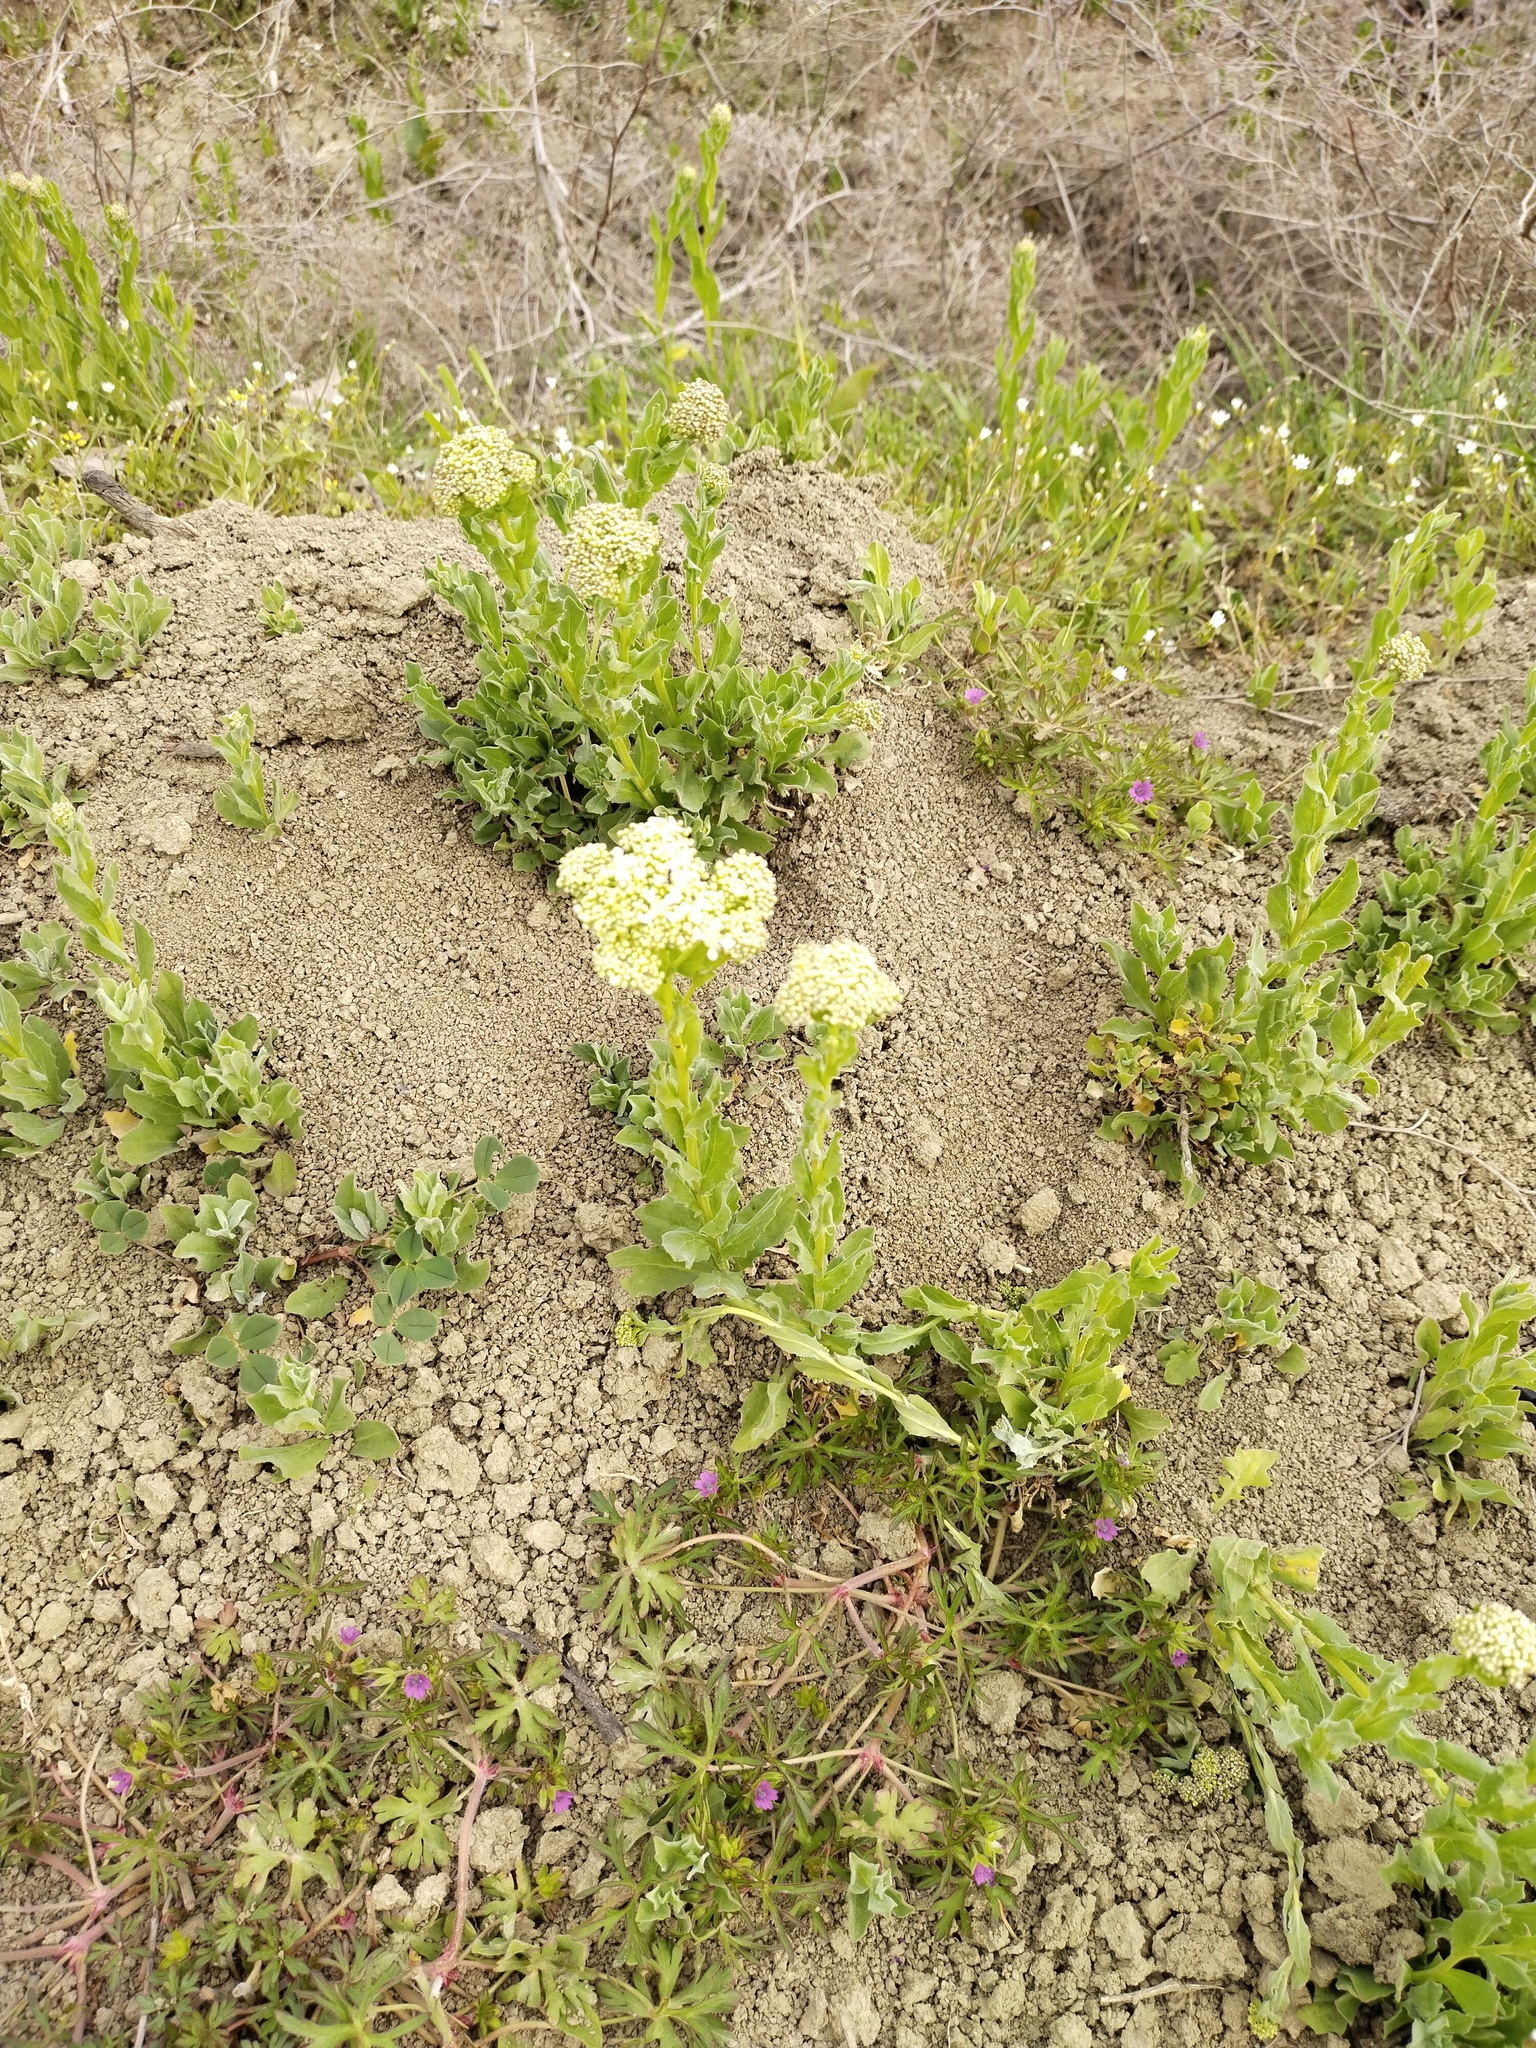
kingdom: Plantae
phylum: Tracheophyta
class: Magnoliopsida
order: Brassicales
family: Brassicaceae
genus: Lepidium
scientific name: Lepidium draba
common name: Hoary cress
